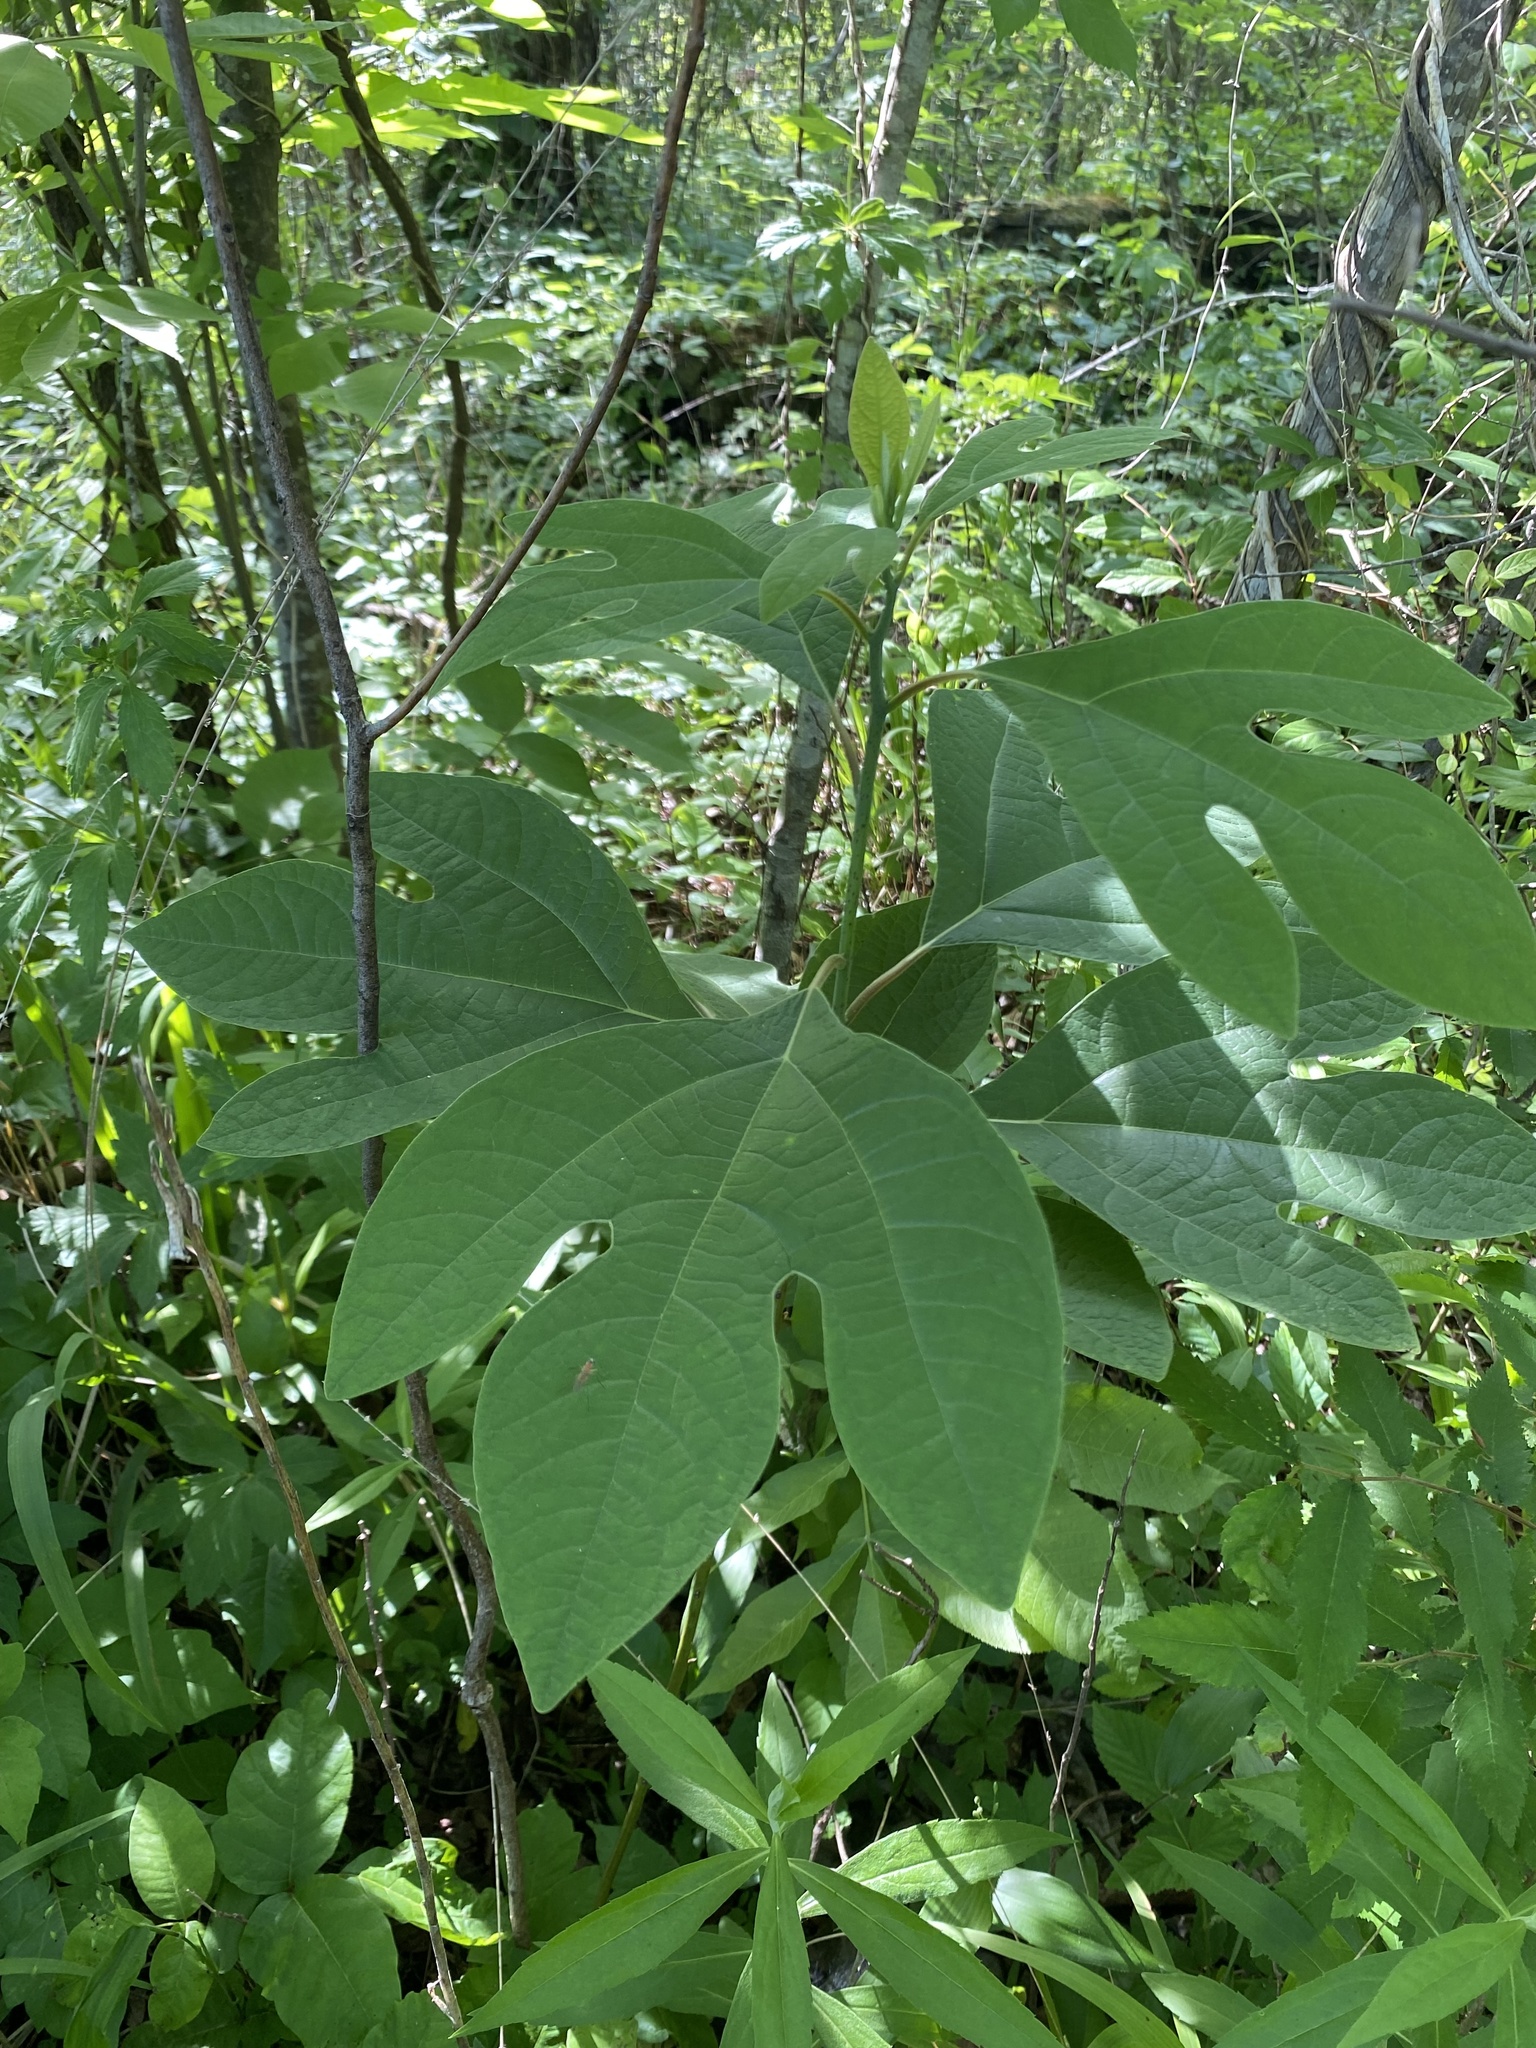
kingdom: Plantae
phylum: Tracheophyta
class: Magnoliopsida
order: Laurales
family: Lauraceae
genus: Sassafras
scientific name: Sassafras albidum
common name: Sassafras
